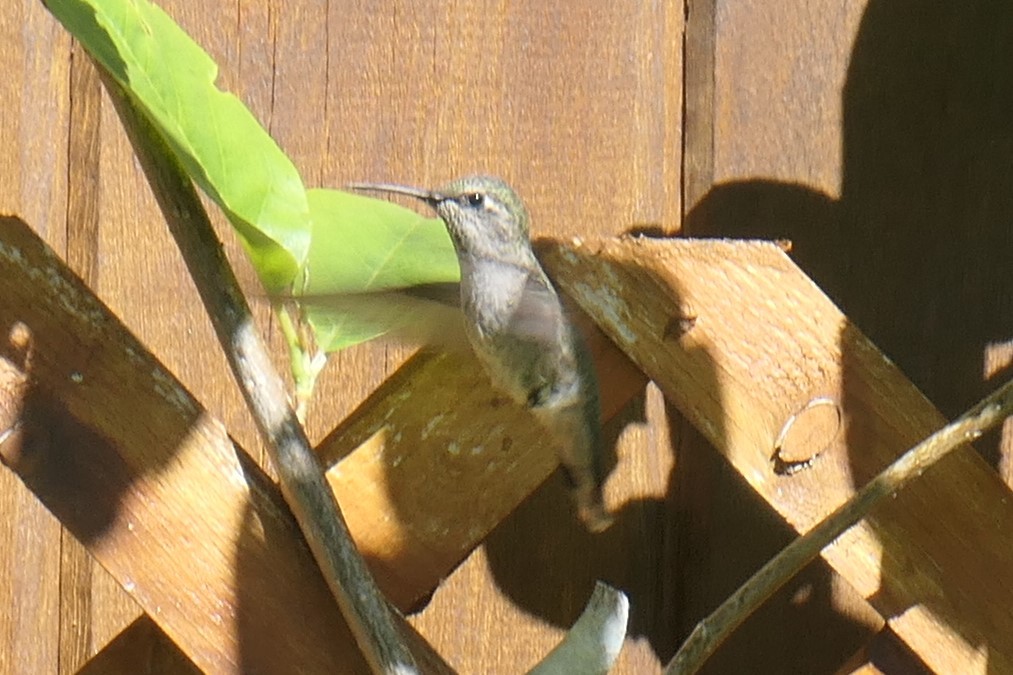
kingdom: Animalia
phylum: Chordata
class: Aves
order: Apodiformes
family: Trochilidae
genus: Calypte
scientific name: Calypte anna
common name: Anna's hummingbird
